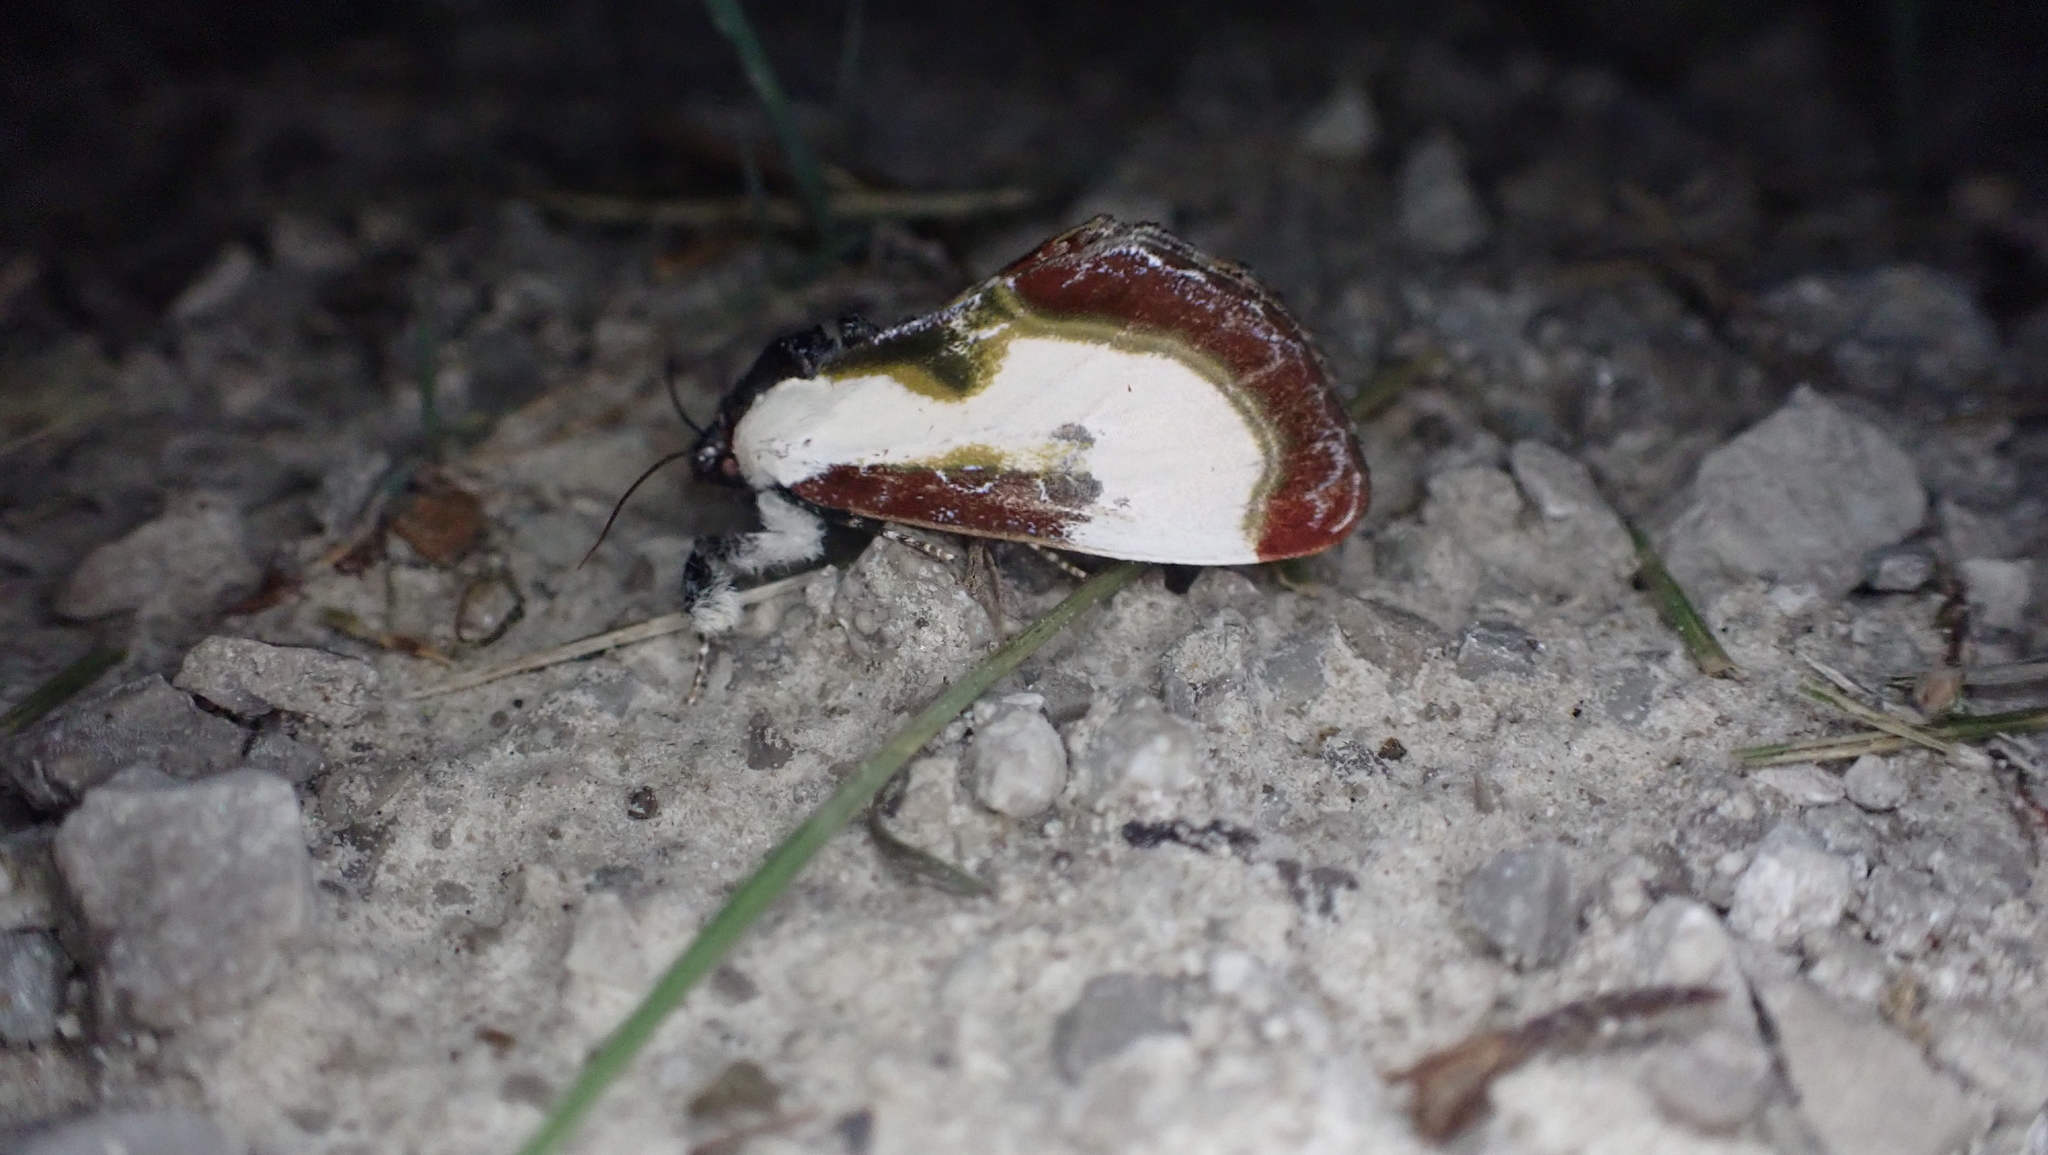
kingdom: Animalia
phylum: Arthropoda
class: Insecta
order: Lepidoptera
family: Noctuidae
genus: Eudryas
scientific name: Eudryas grata
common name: Beautiful wood-nymph
